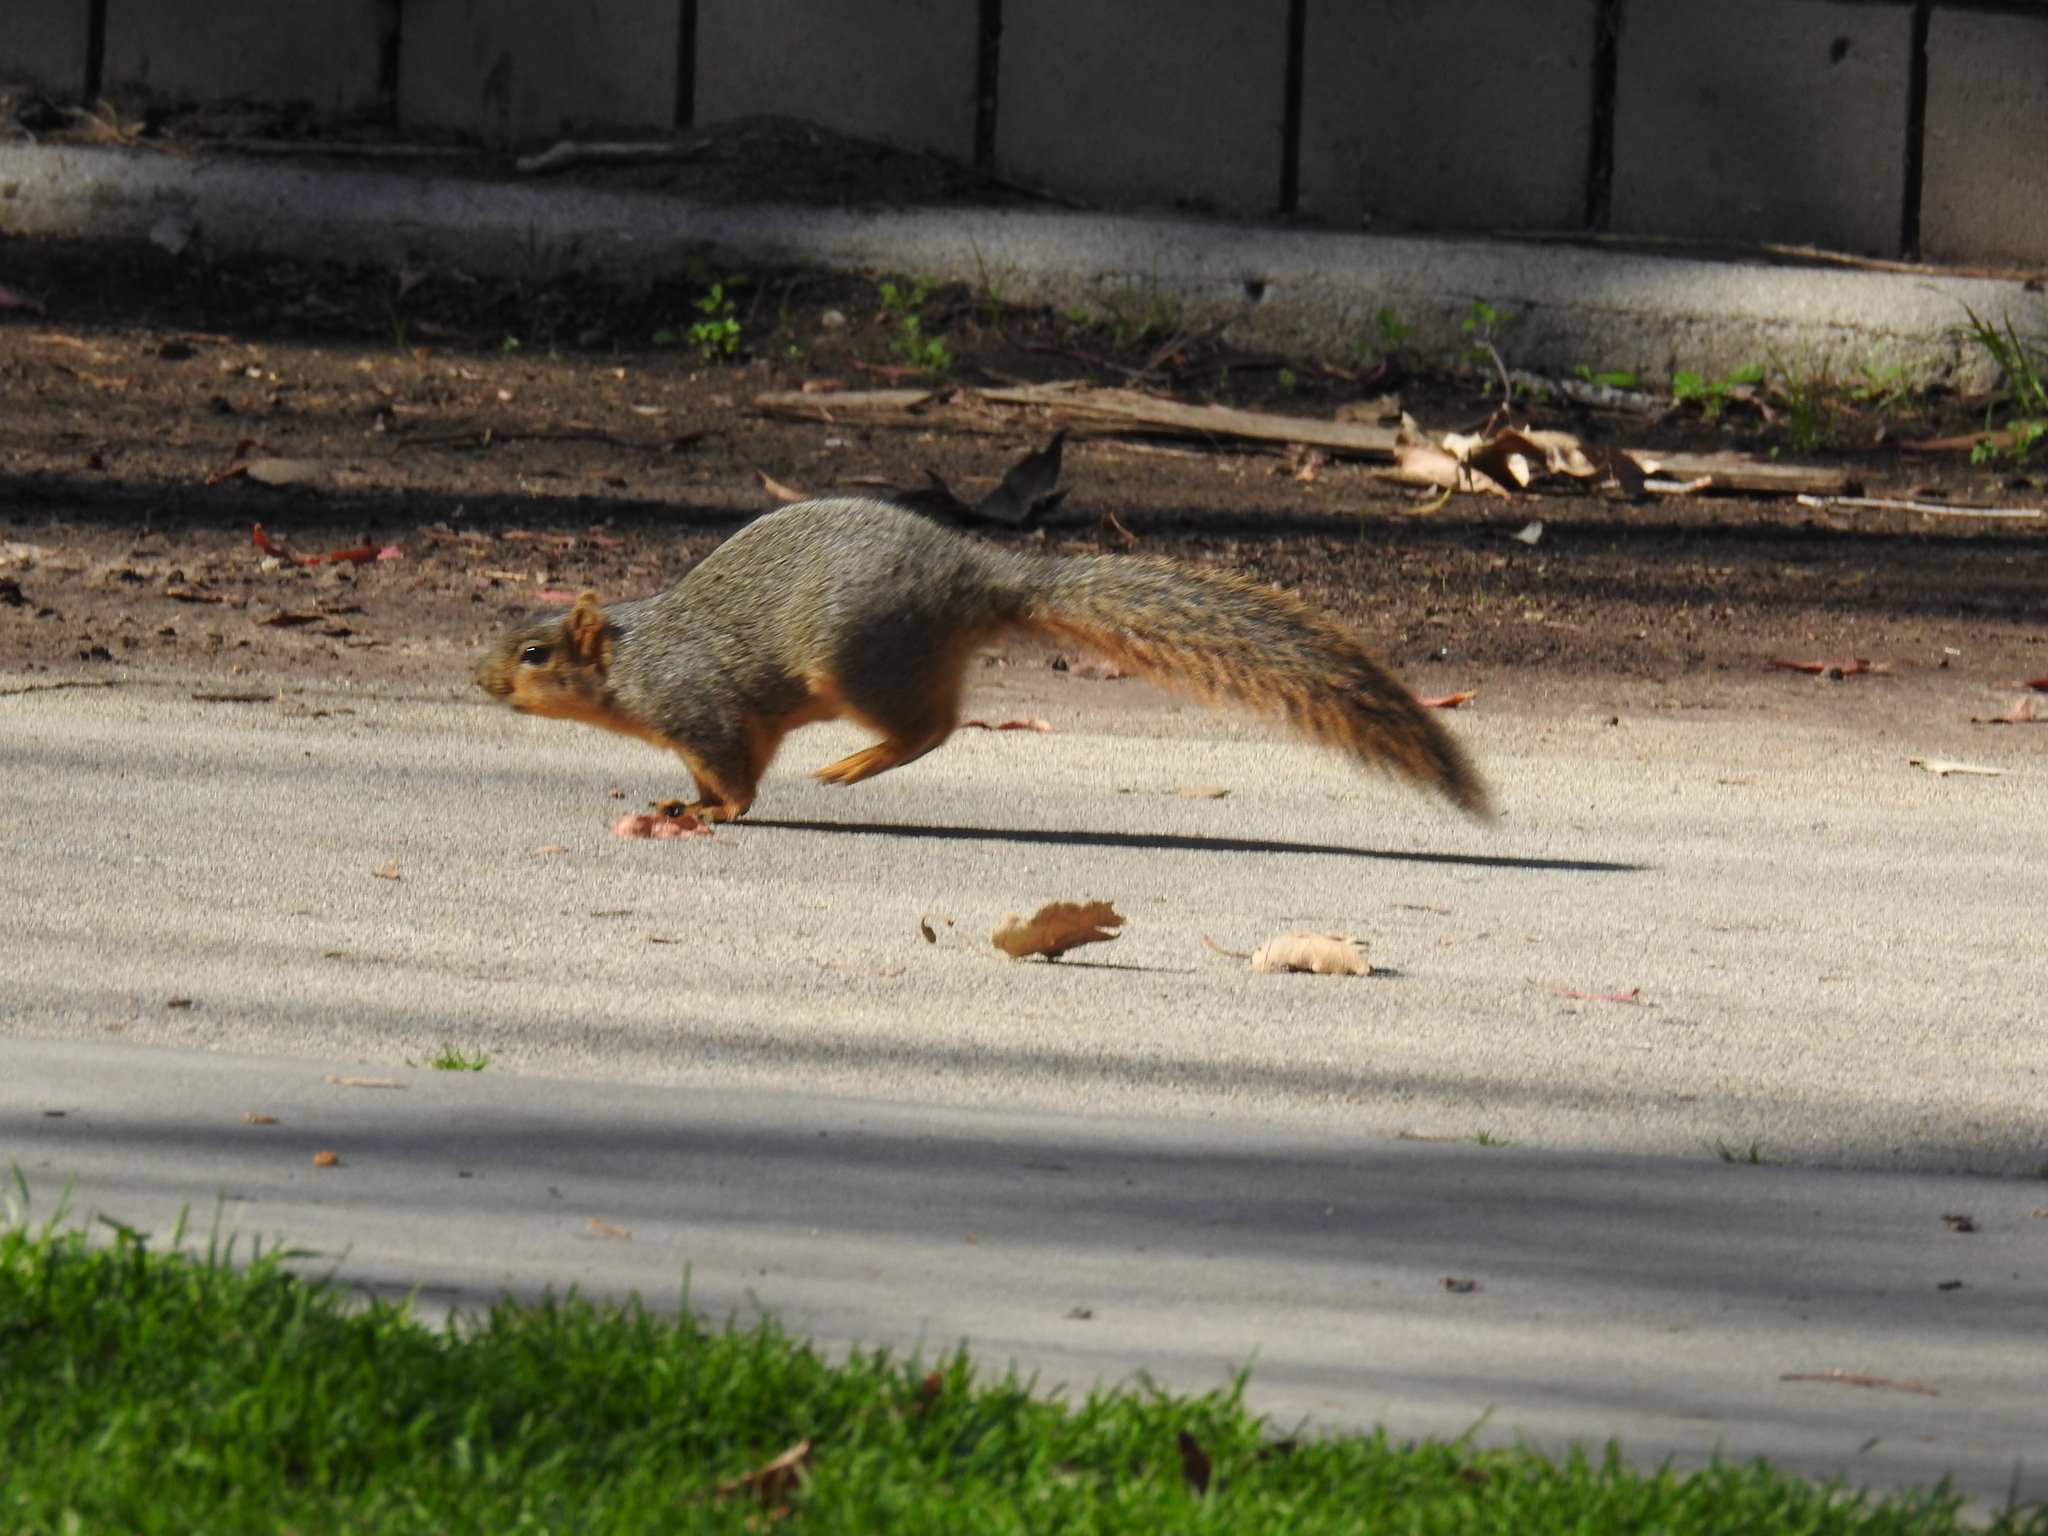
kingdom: Animalia
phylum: Chordata
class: Mammalia
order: Rodentia
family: Sciuridae
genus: Sciurus
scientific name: Sciurus niger
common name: Fox squirrel
